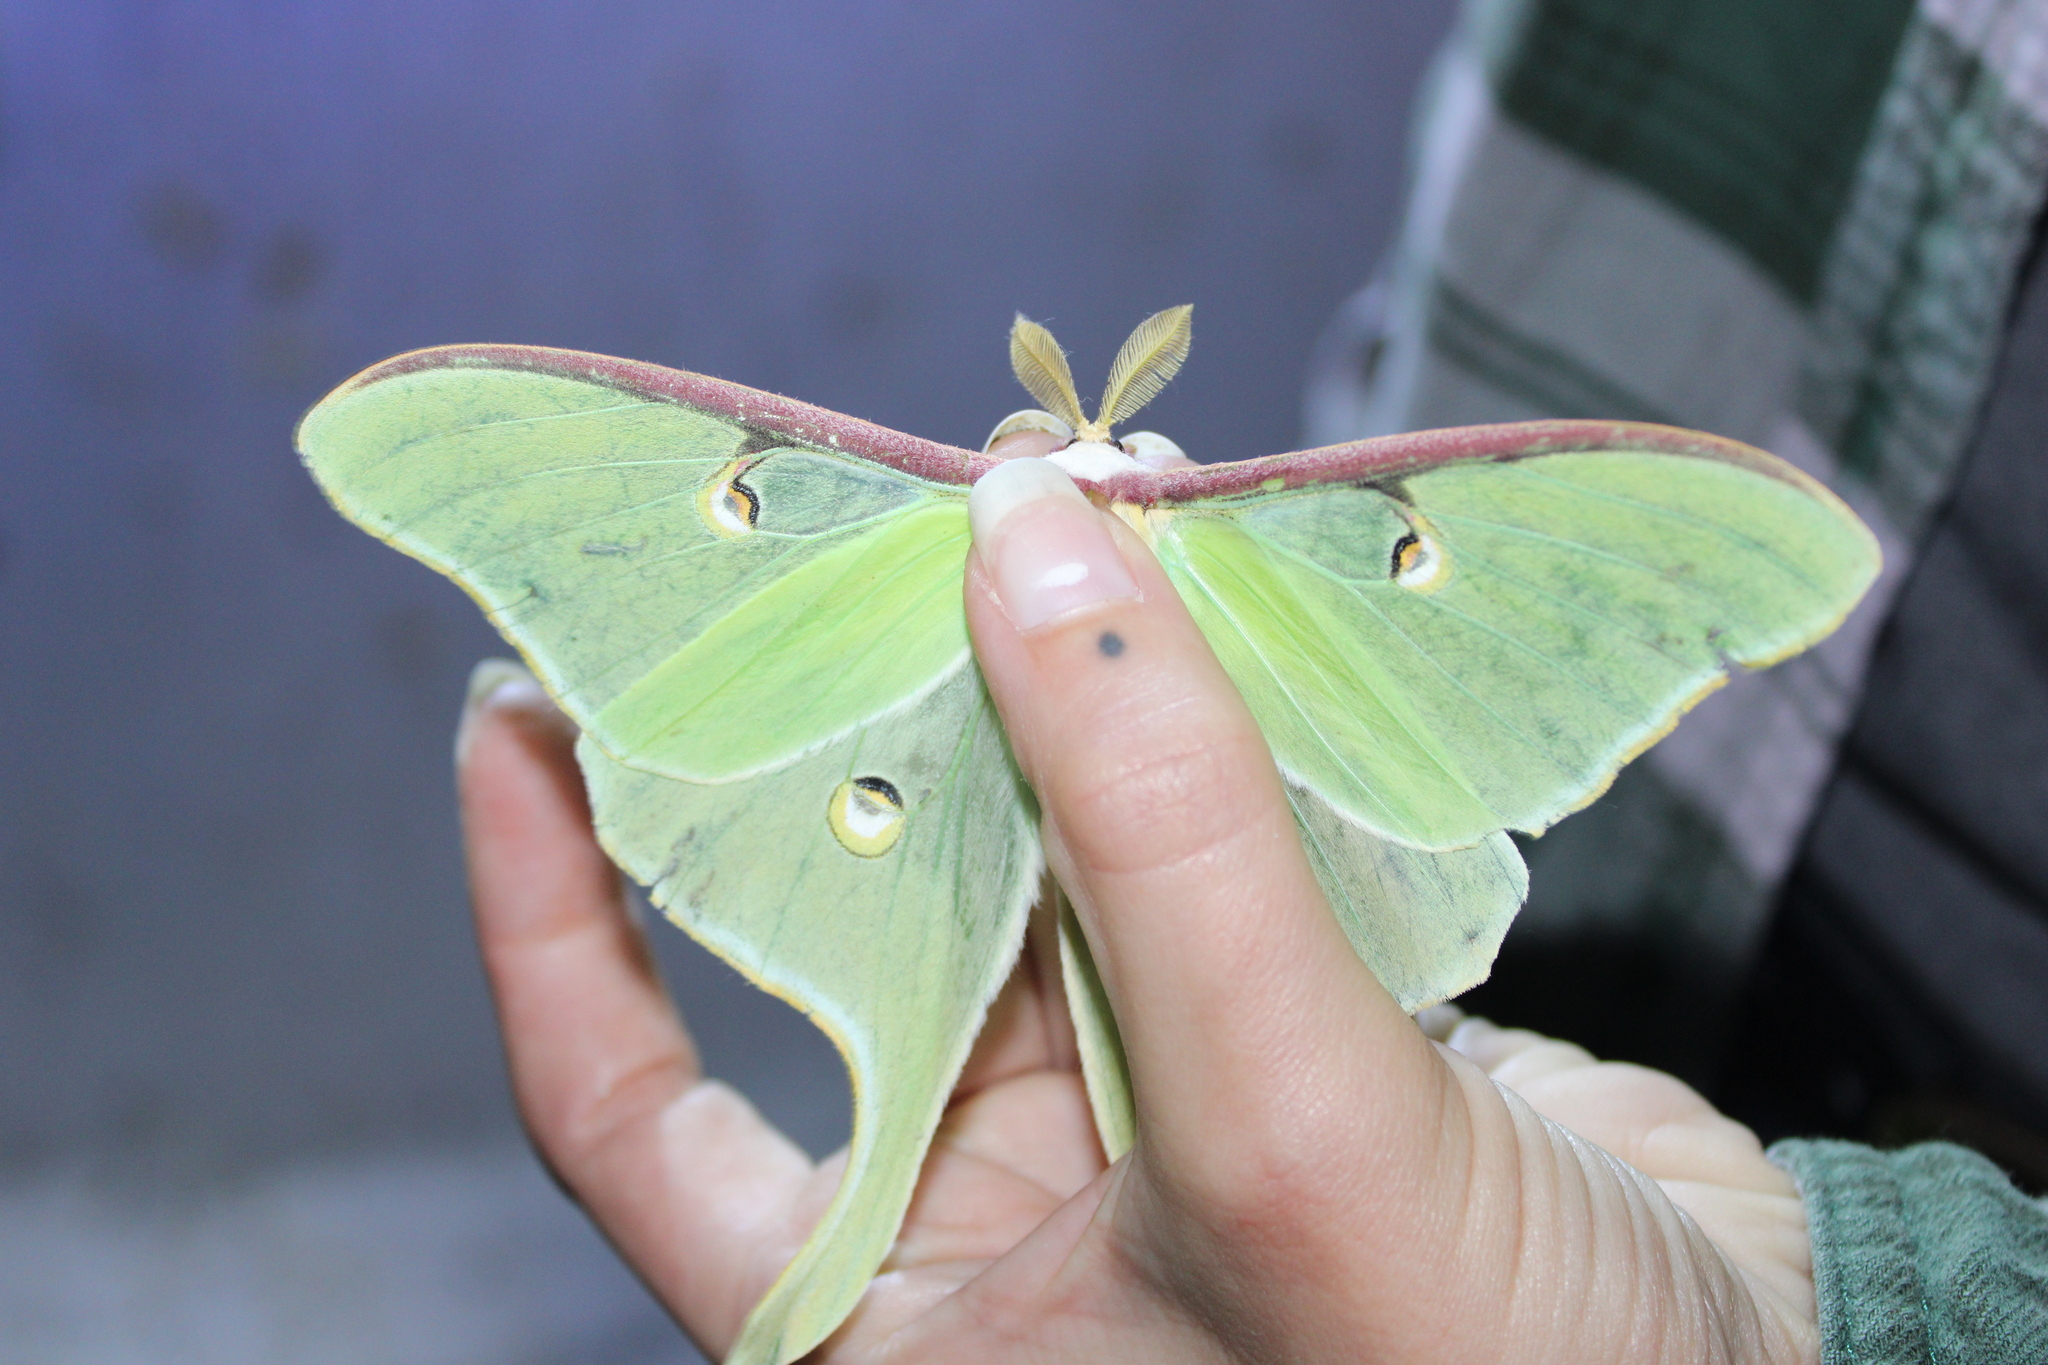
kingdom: Animalia
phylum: Arthropoda
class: Insecta
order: Lepidoptera
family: Saturniidae
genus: Actias
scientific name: Actias luna
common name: Luna moth
